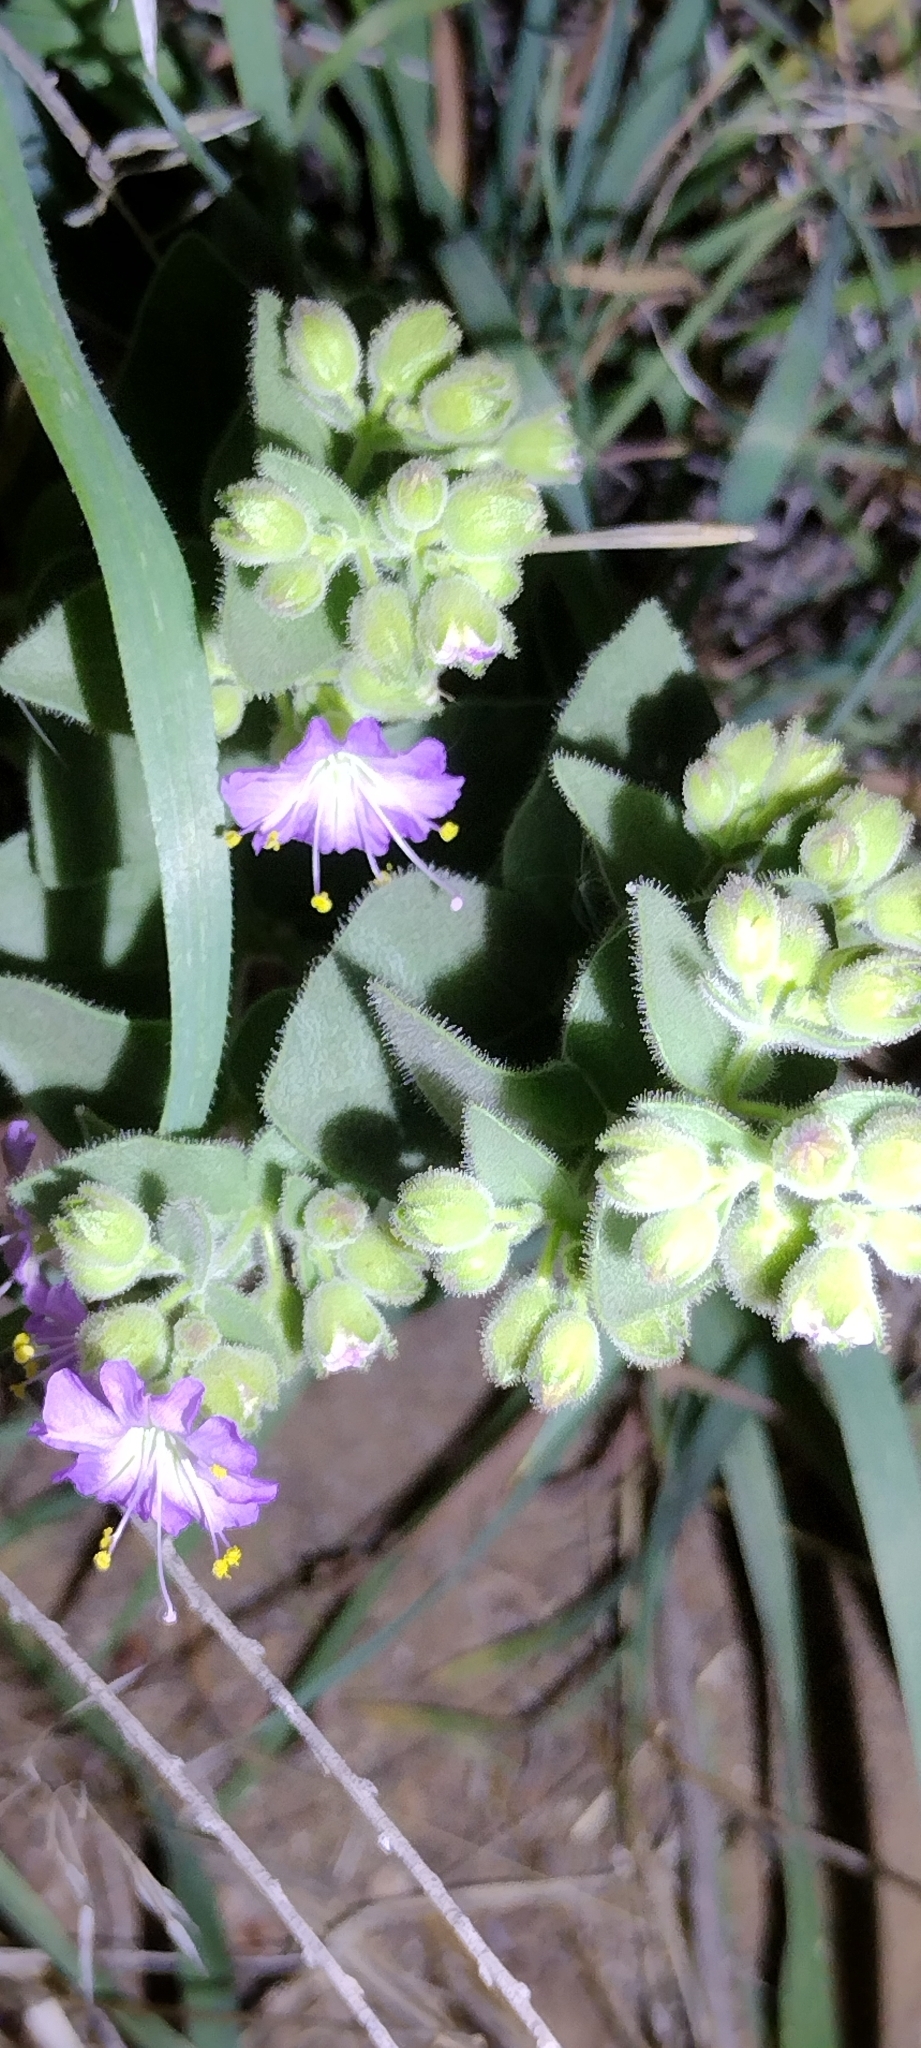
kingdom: Plantae
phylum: Tracheophyta
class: Magnoliopsida
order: Caryophyllales
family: Nyctaginaceae
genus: Mirabilis
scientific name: Mirabilis laevis
